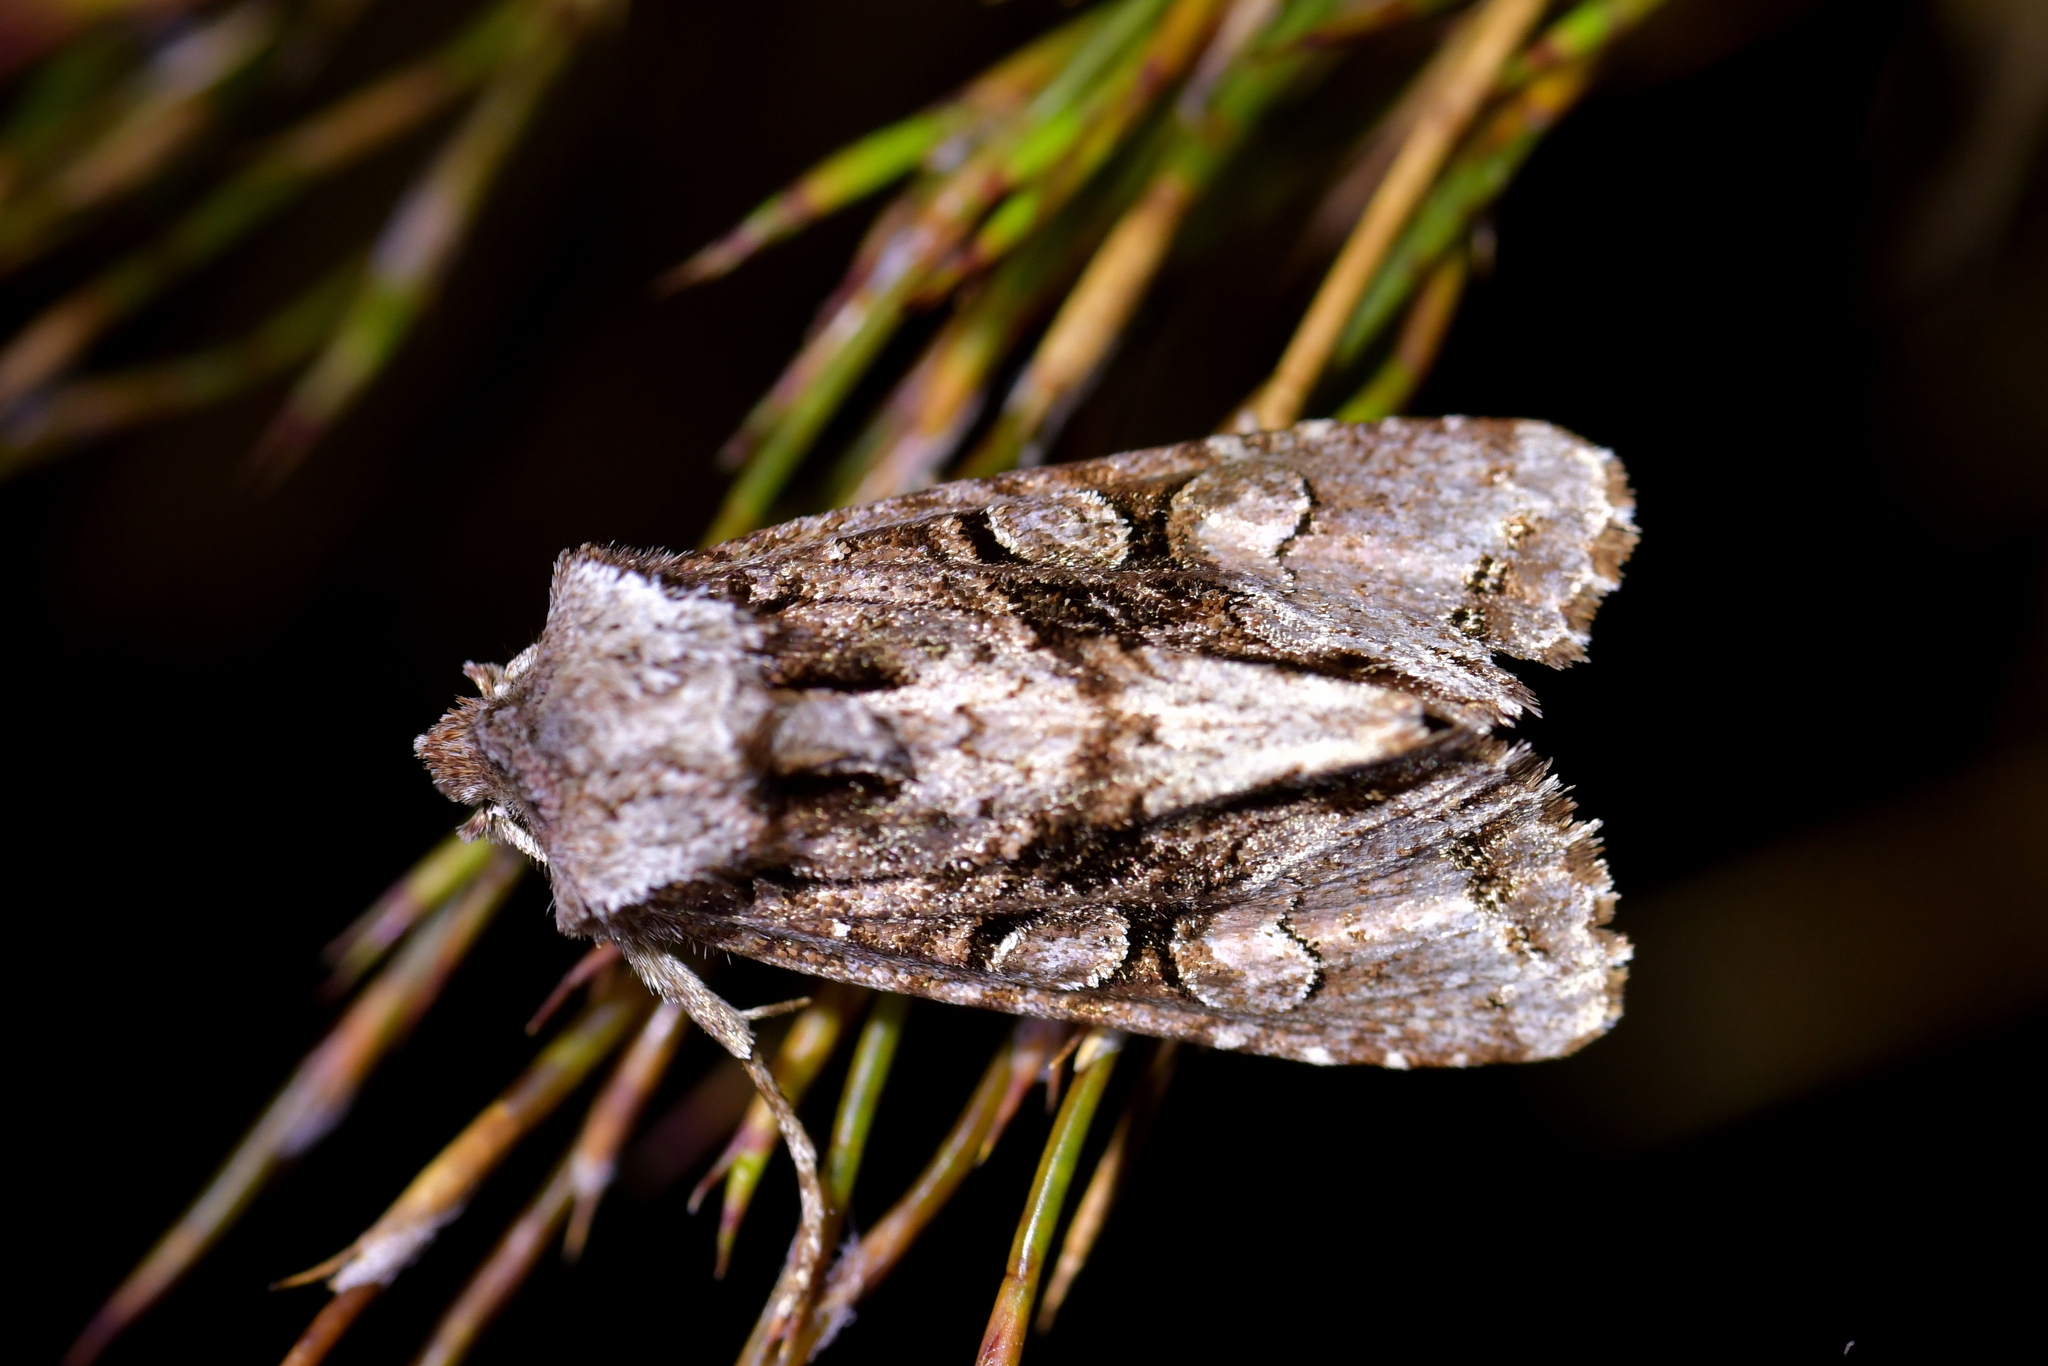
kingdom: Animalia
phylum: Arthropoda
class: Insecta
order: Lepidoptera
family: Noctuidae
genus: Ichneutica
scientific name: Ichneutica skelloni
